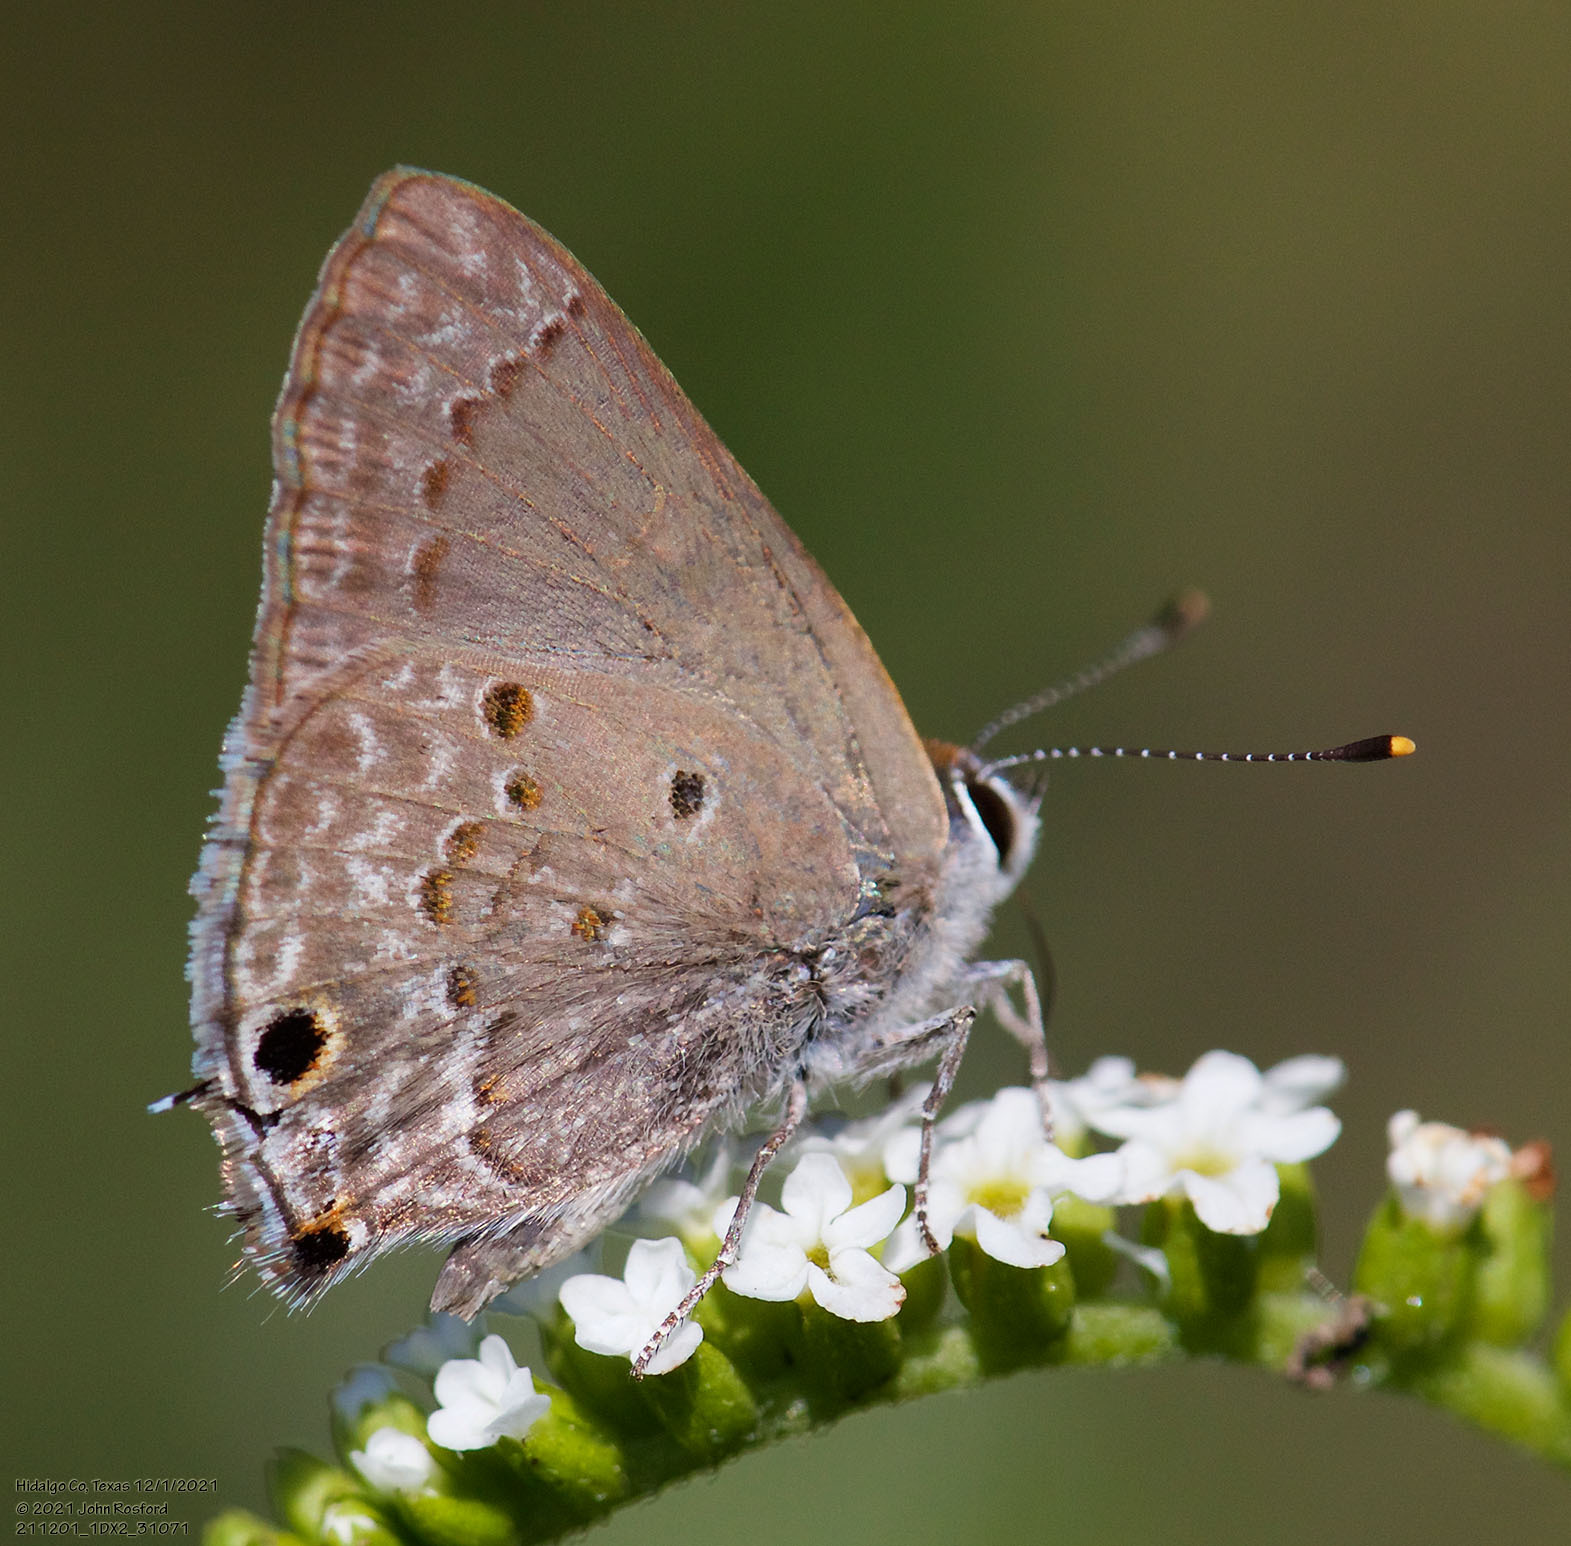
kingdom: Animalia
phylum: Arthropoda
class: Insecta
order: Lepidoptera
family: Lycaenidae
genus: Callicista
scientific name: Callicista columella
